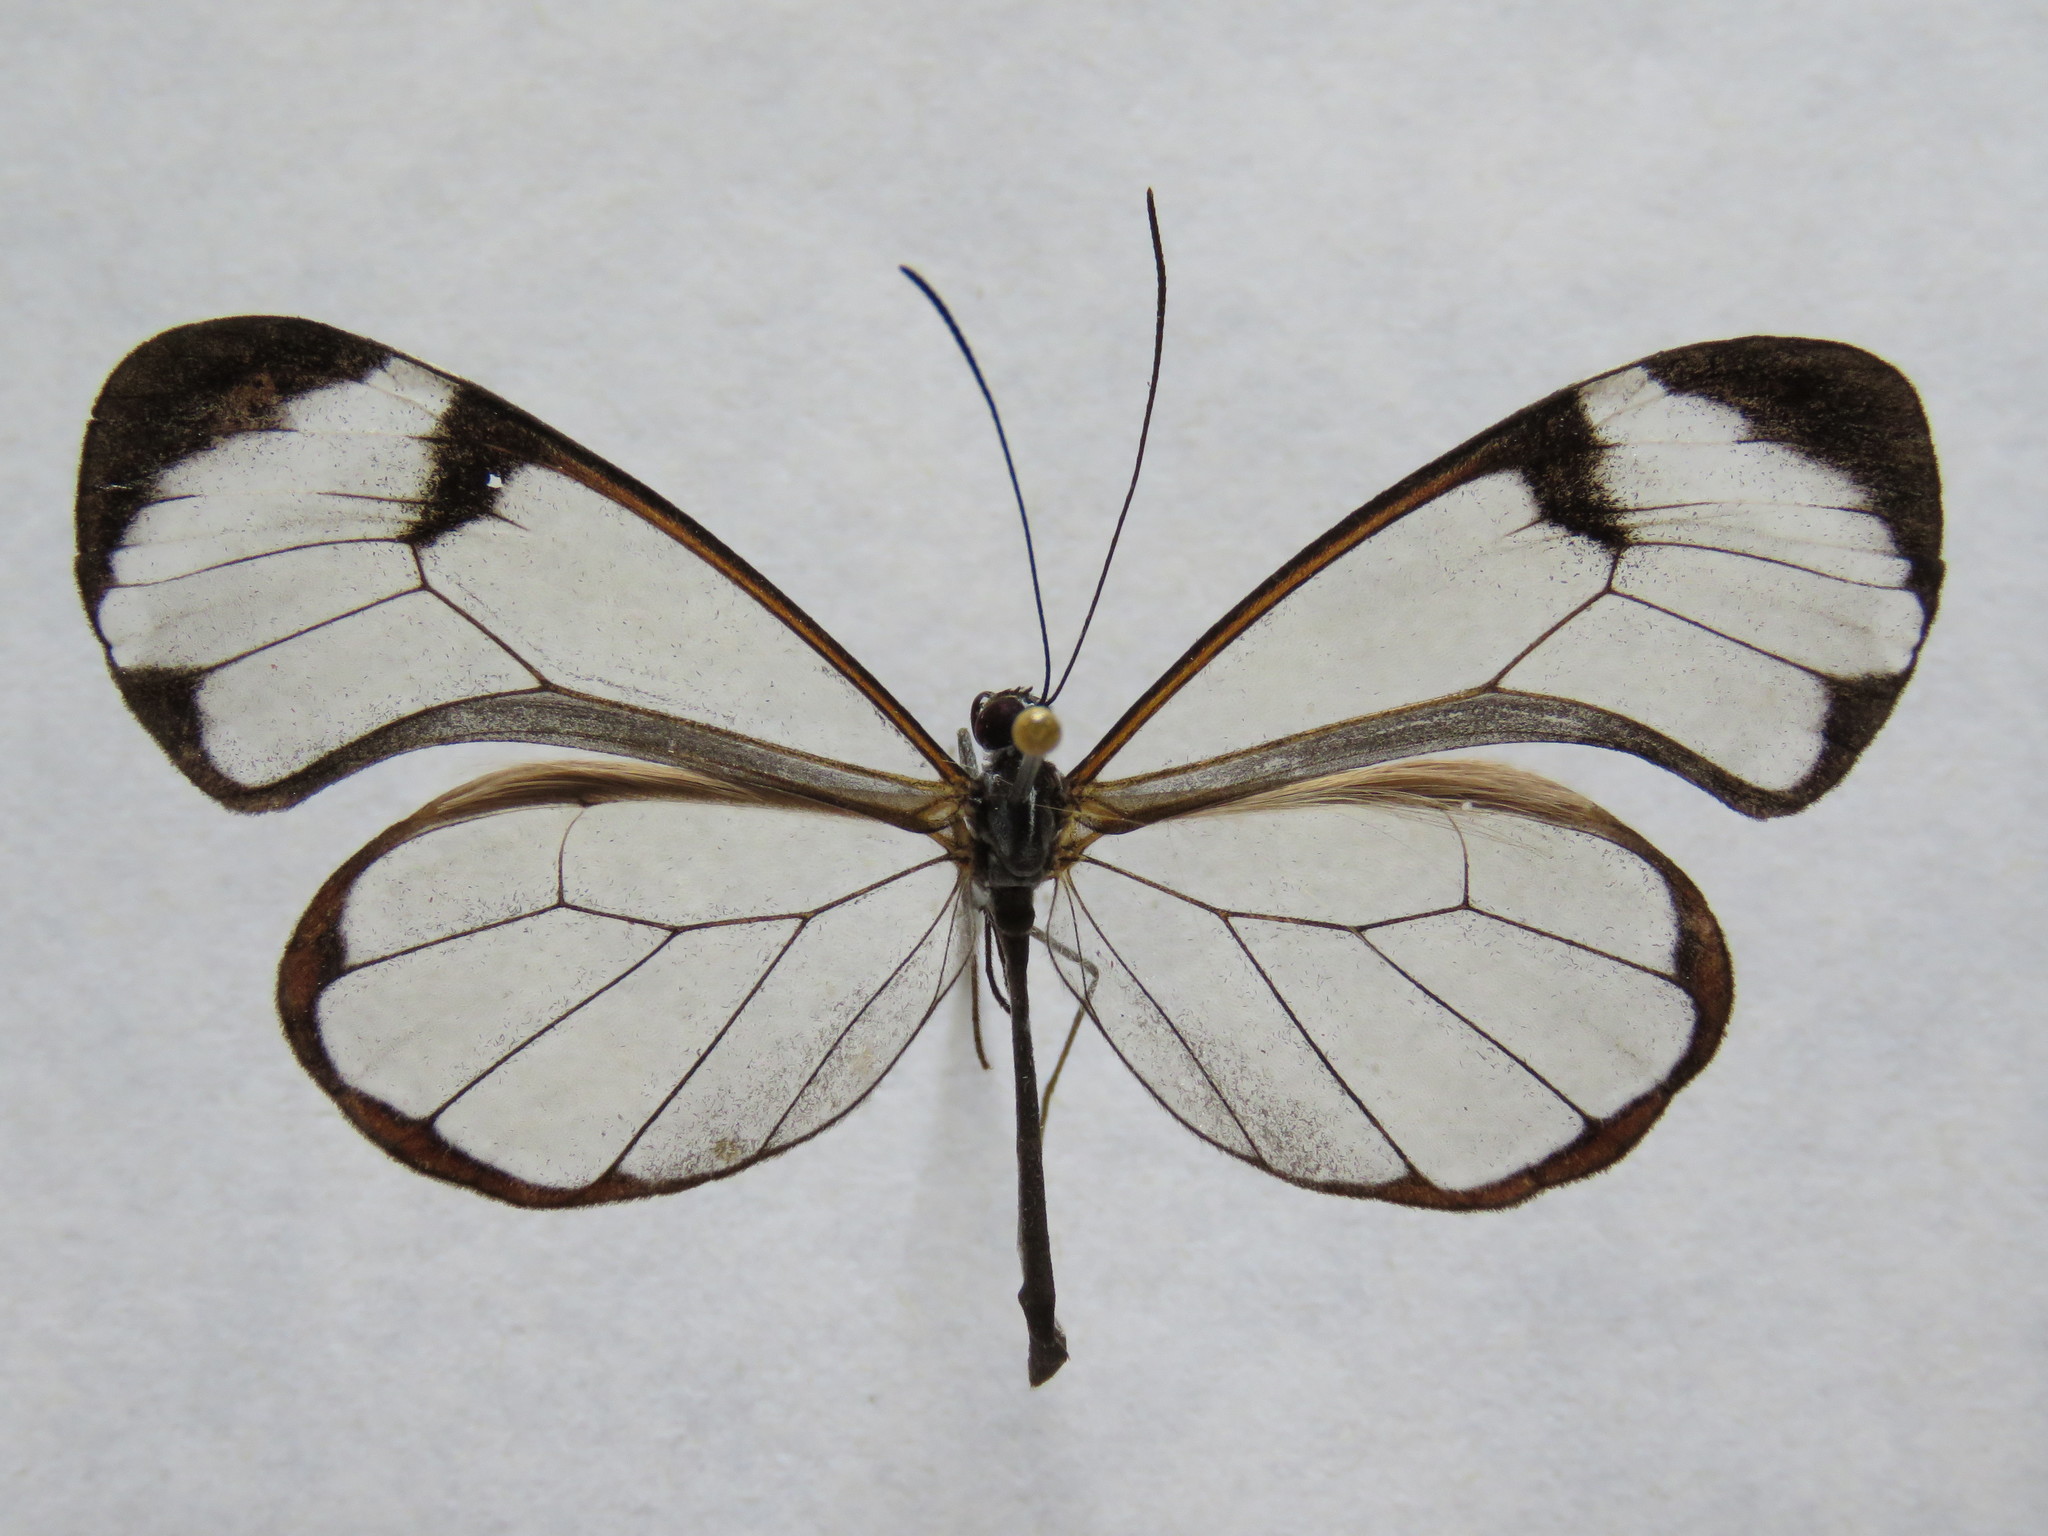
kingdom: Animalia
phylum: Arthropoda
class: Insecta
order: Lepidoptera
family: Nymphalidae
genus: Greta
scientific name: Greta morgane
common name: Thick-tipped greta
